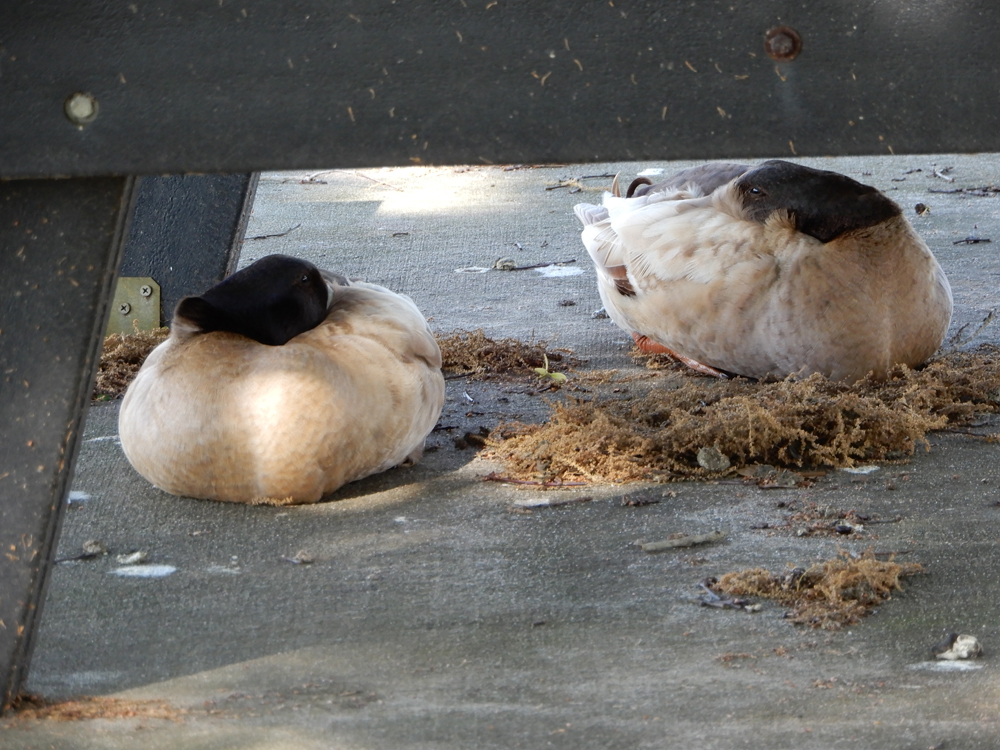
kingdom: Animalia
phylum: Chordata
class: Aves
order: Anseriformes
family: Anatidae
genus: Anas
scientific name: Anas platyrhynchos
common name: Mallard
